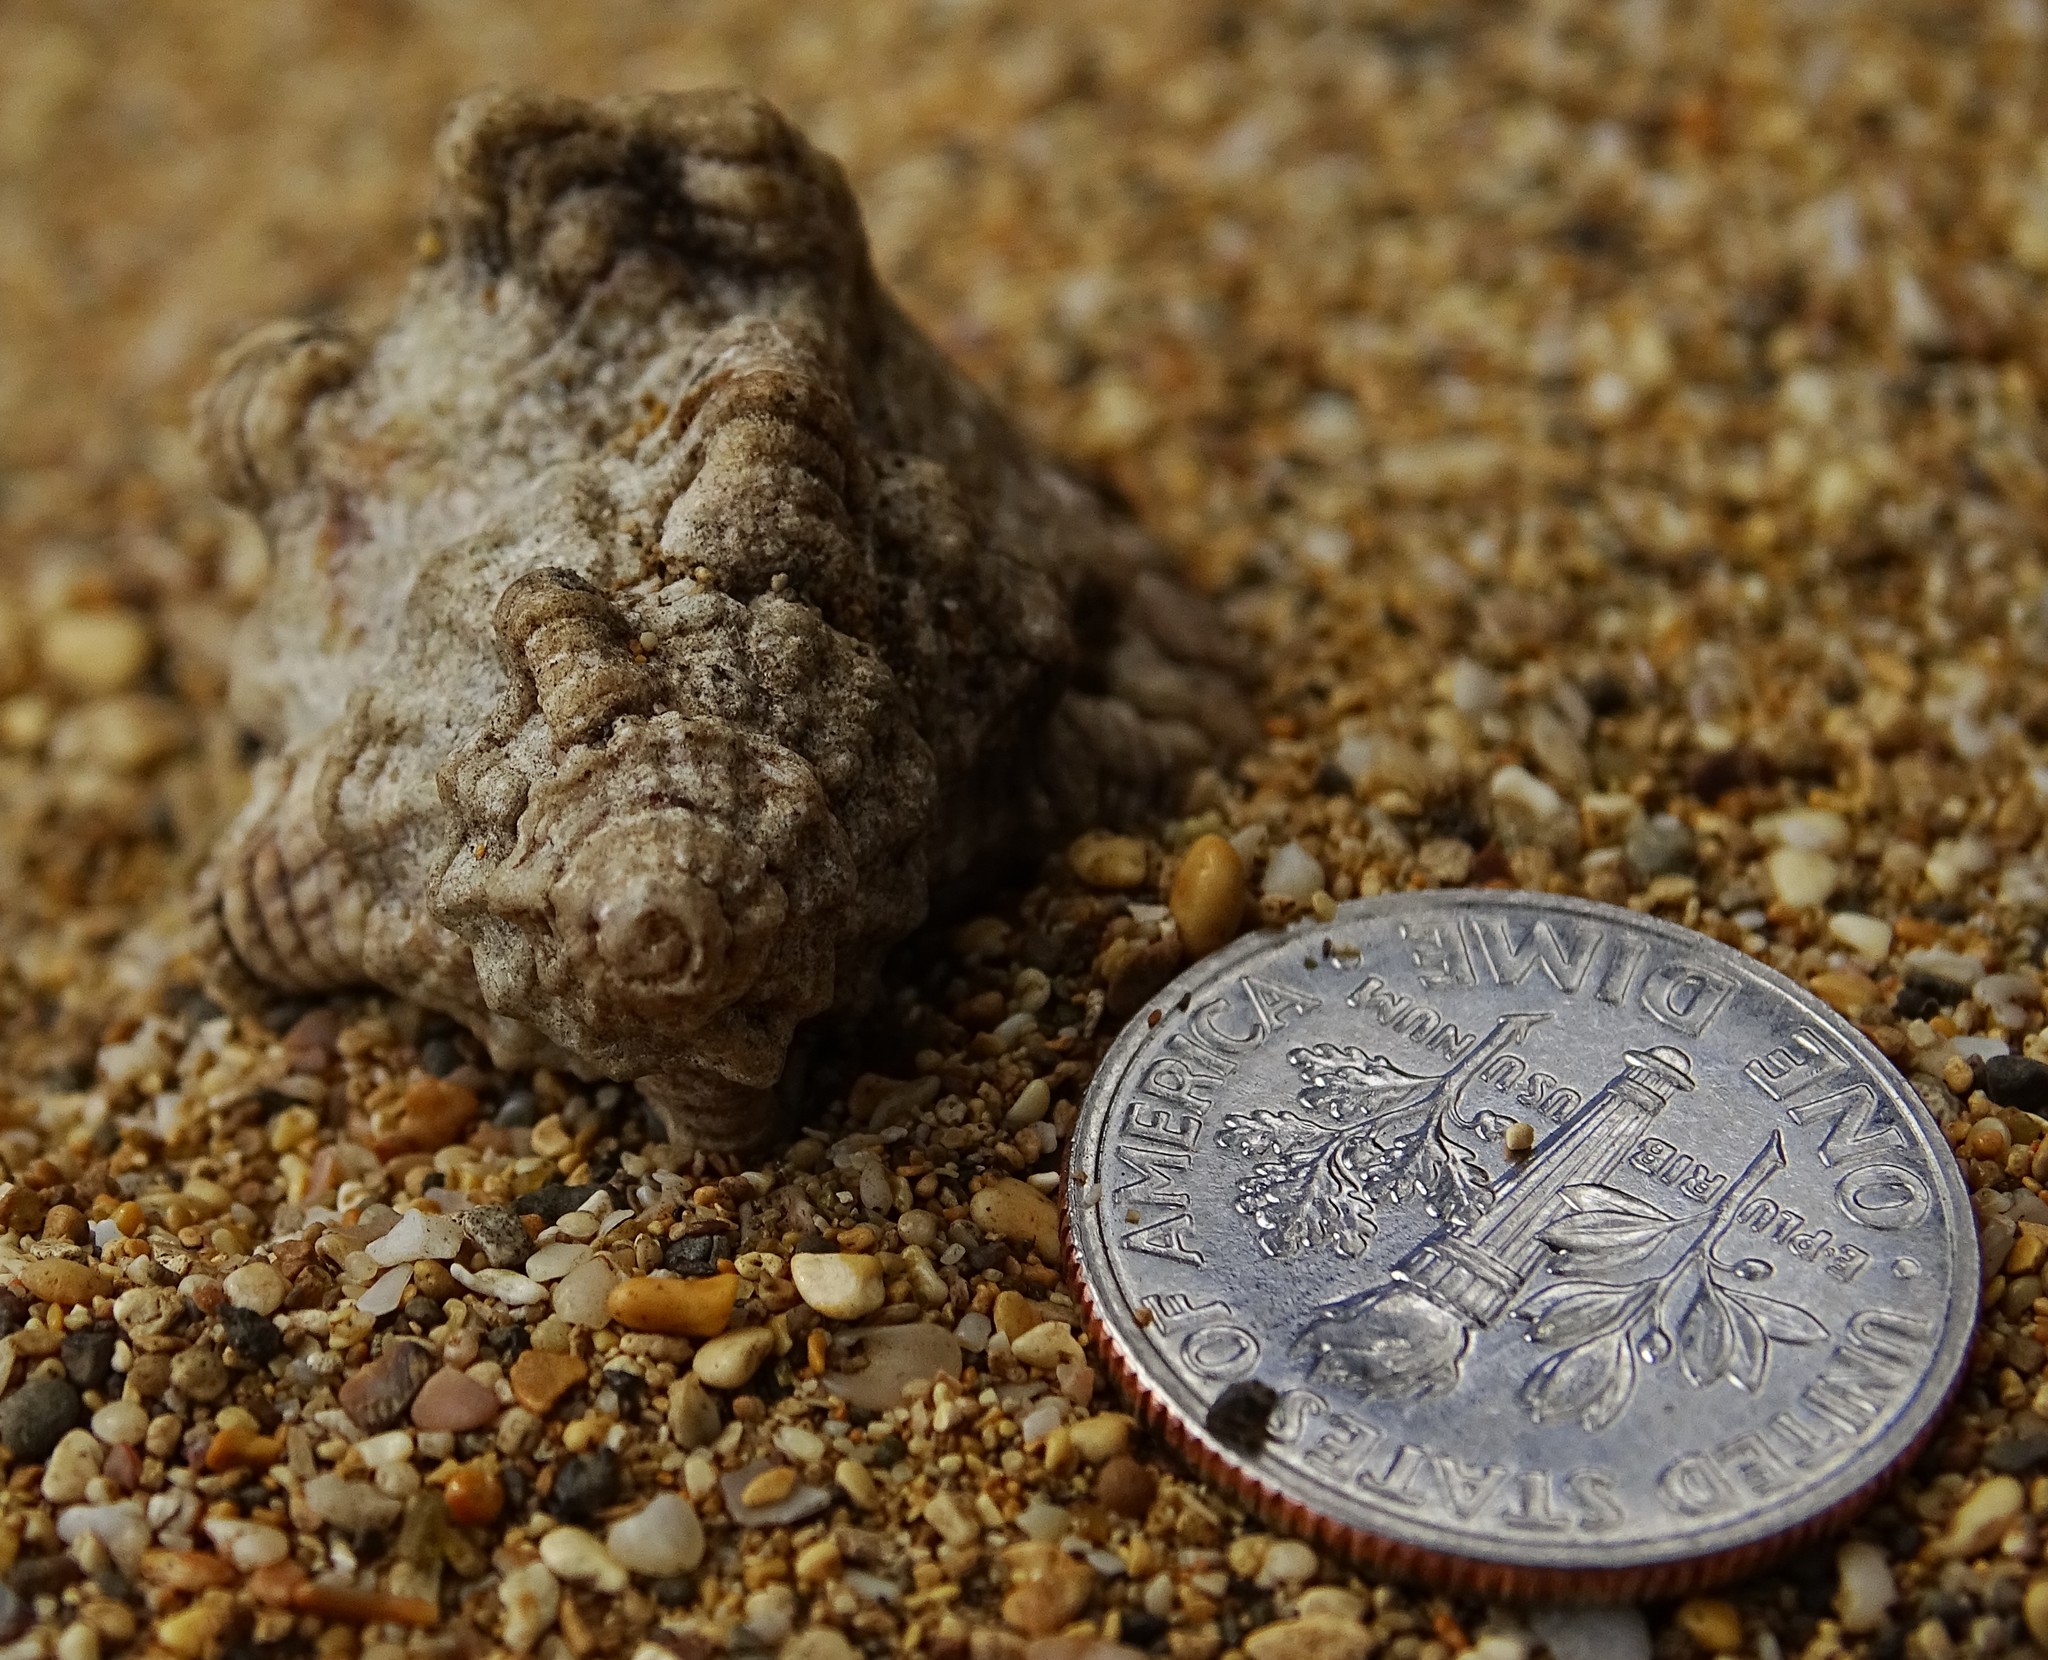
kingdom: Animalia
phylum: Mollusca
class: Gastropoda
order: Littorinimorpha
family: Cymatiidae
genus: Monoplex
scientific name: Monoplex nicobaricus
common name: Goldmouth triton
